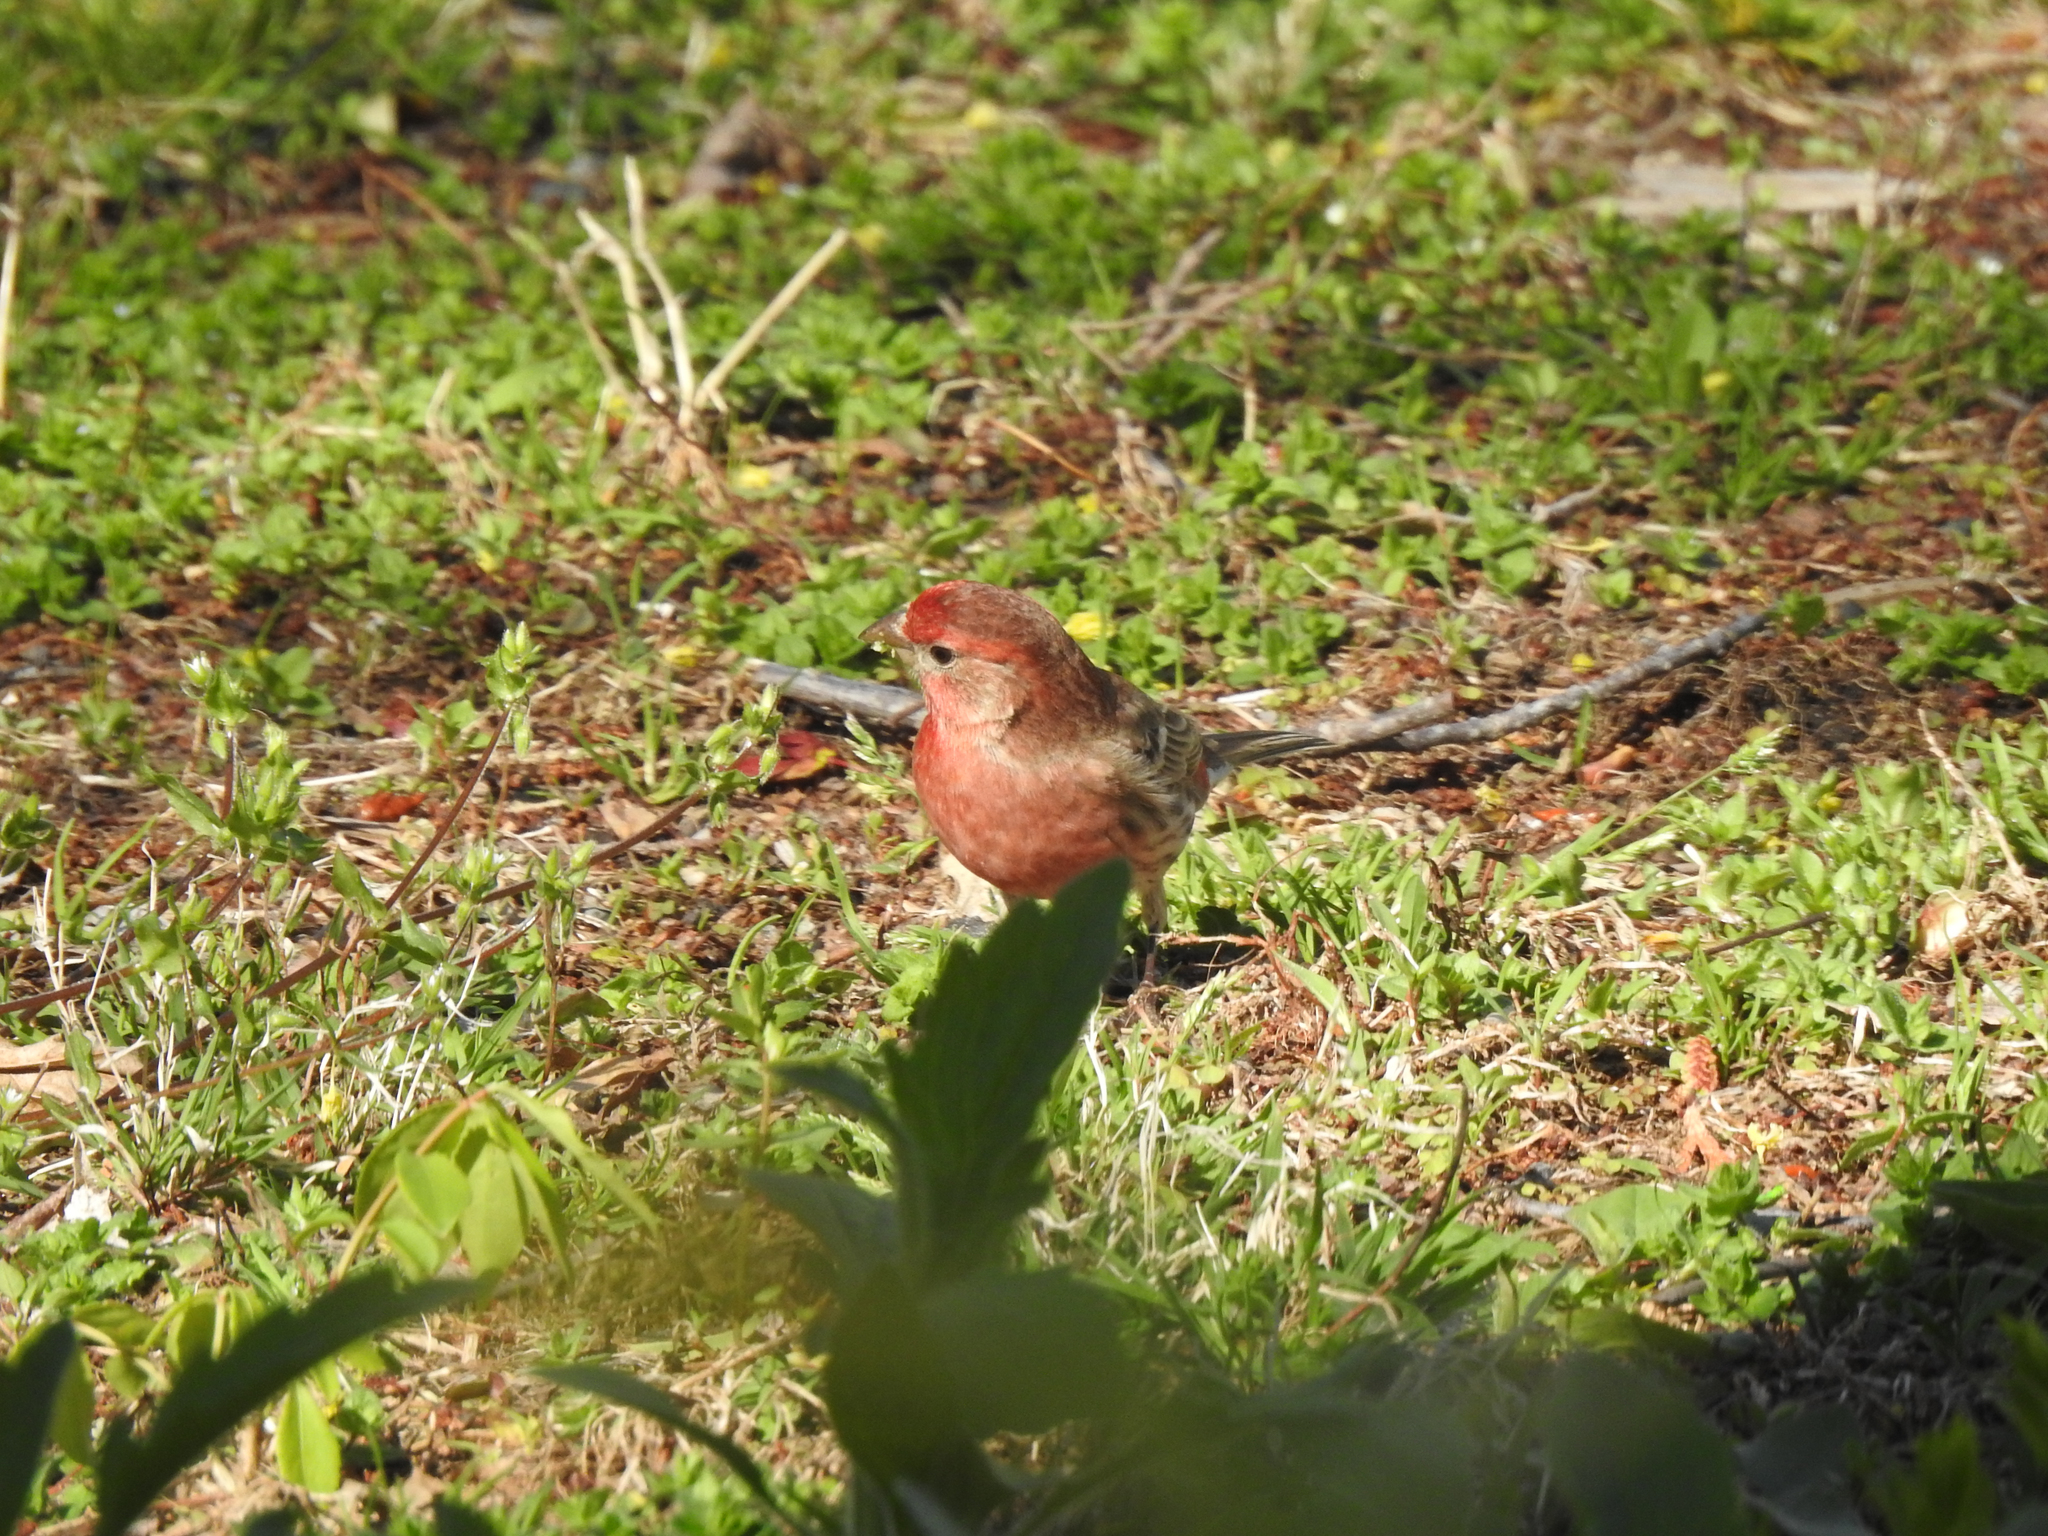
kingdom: Animalia
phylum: Chordata
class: Aves
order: Passeriformes
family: Fringillidae
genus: Haemorhous
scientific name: Haemorhous mexicanus
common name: House finch
